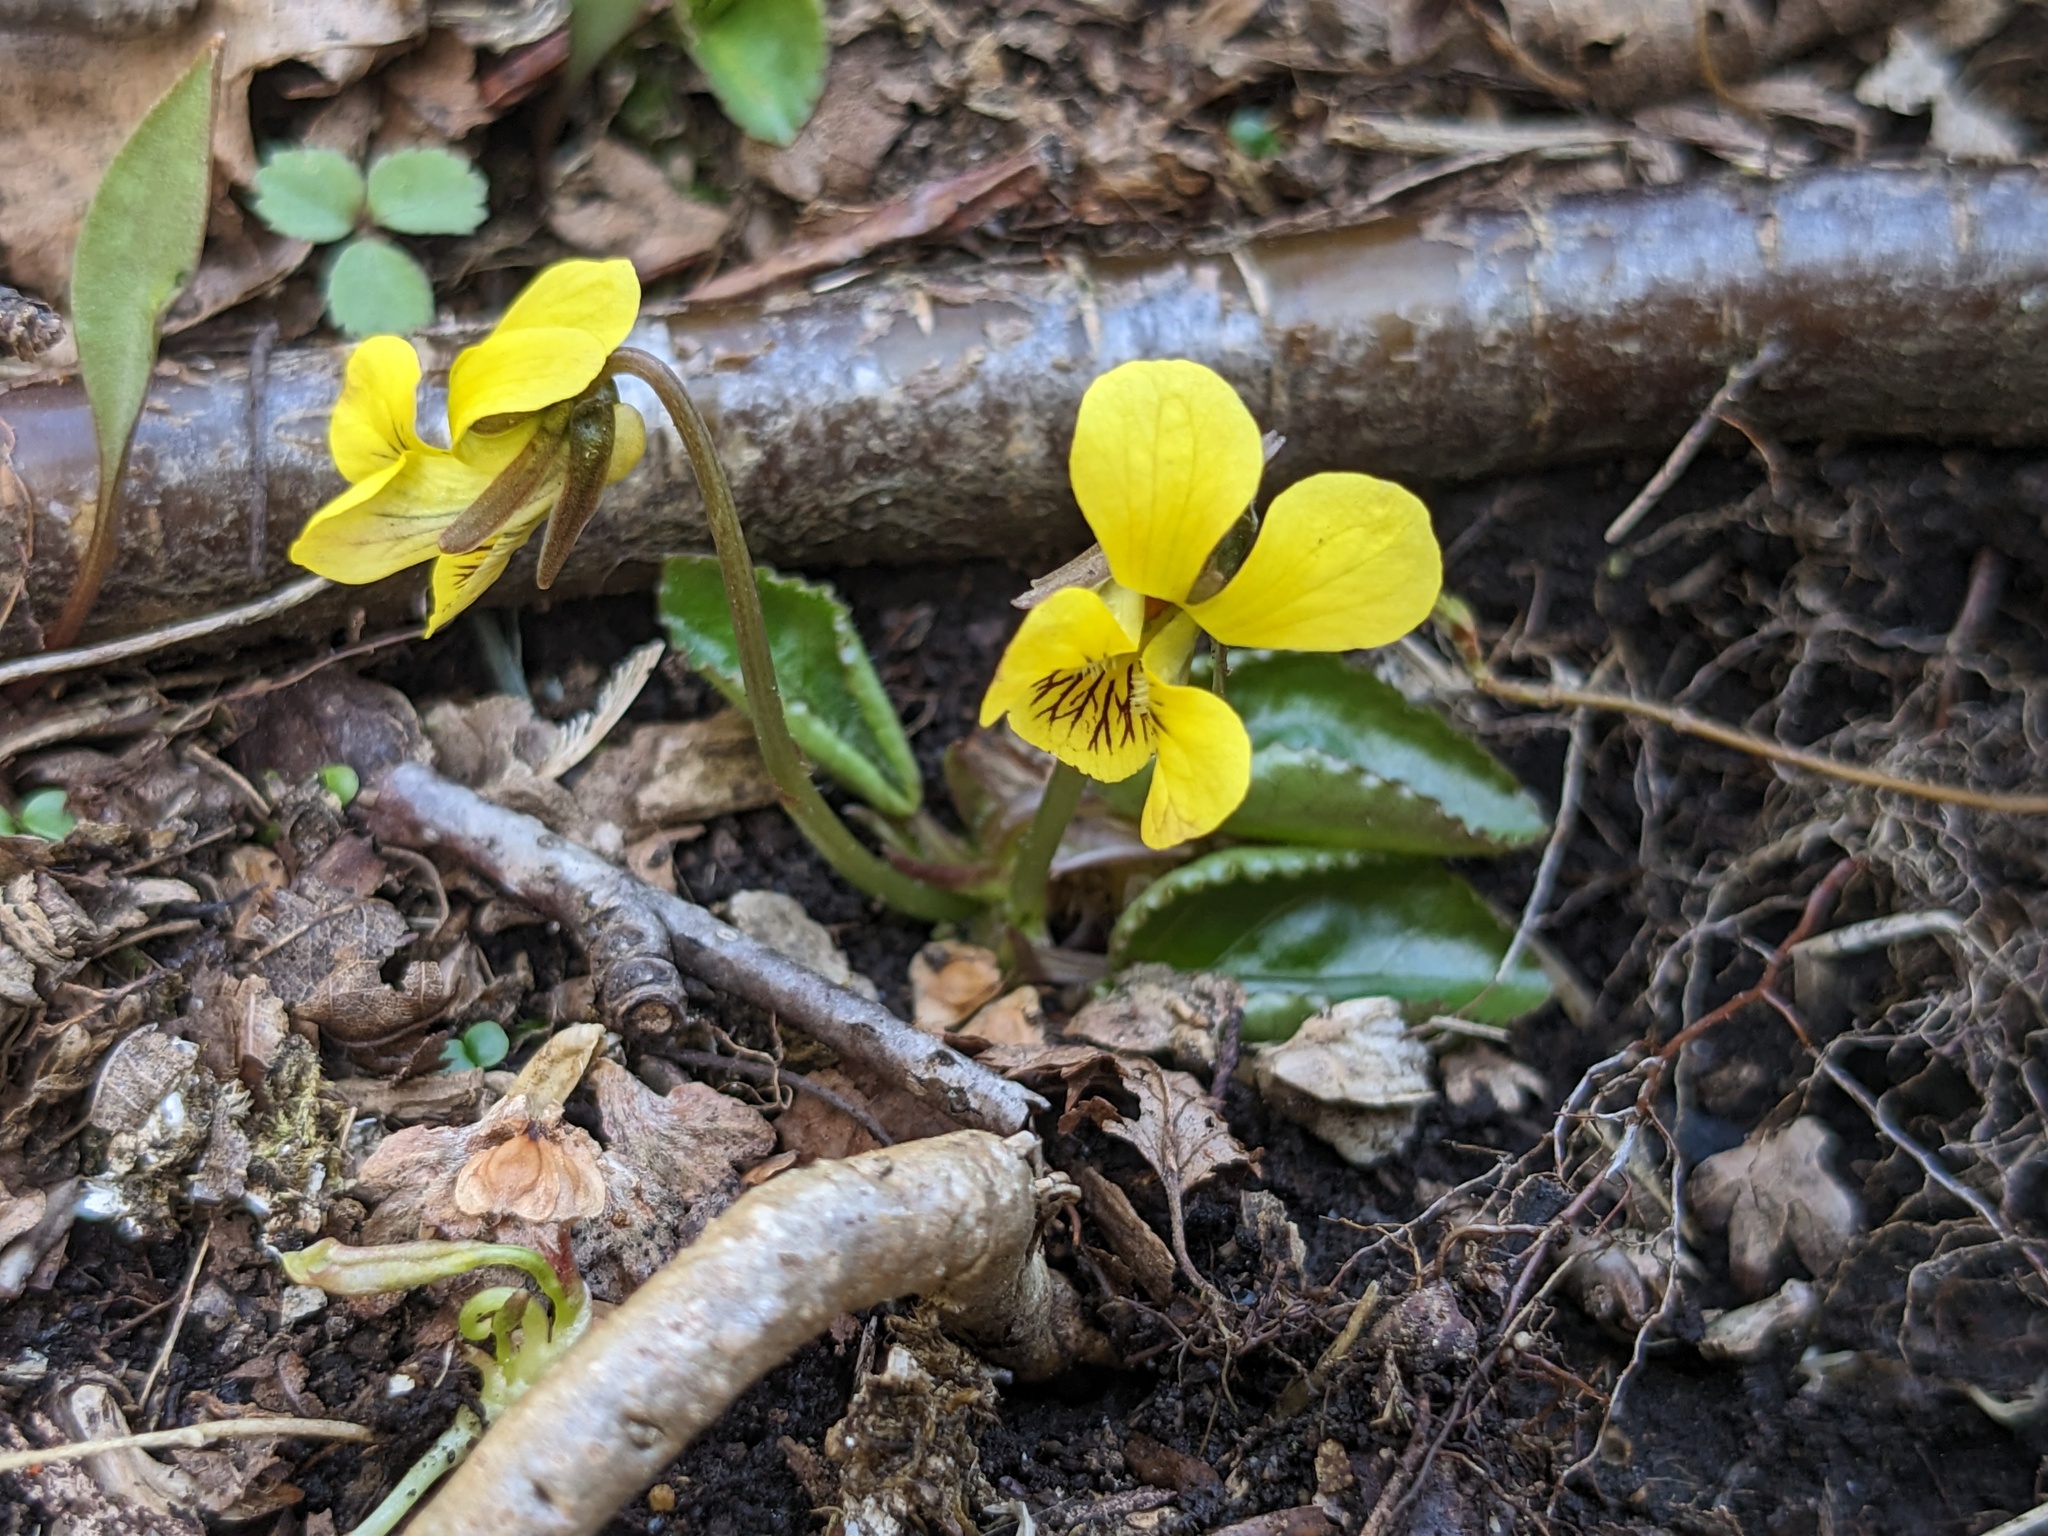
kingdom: Plantae
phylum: Tracheophyta
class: Magnoliopsida
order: Malpighiales
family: Violaceae
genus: Viola
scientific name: Viola rotundifolia
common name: Early yellow violet
